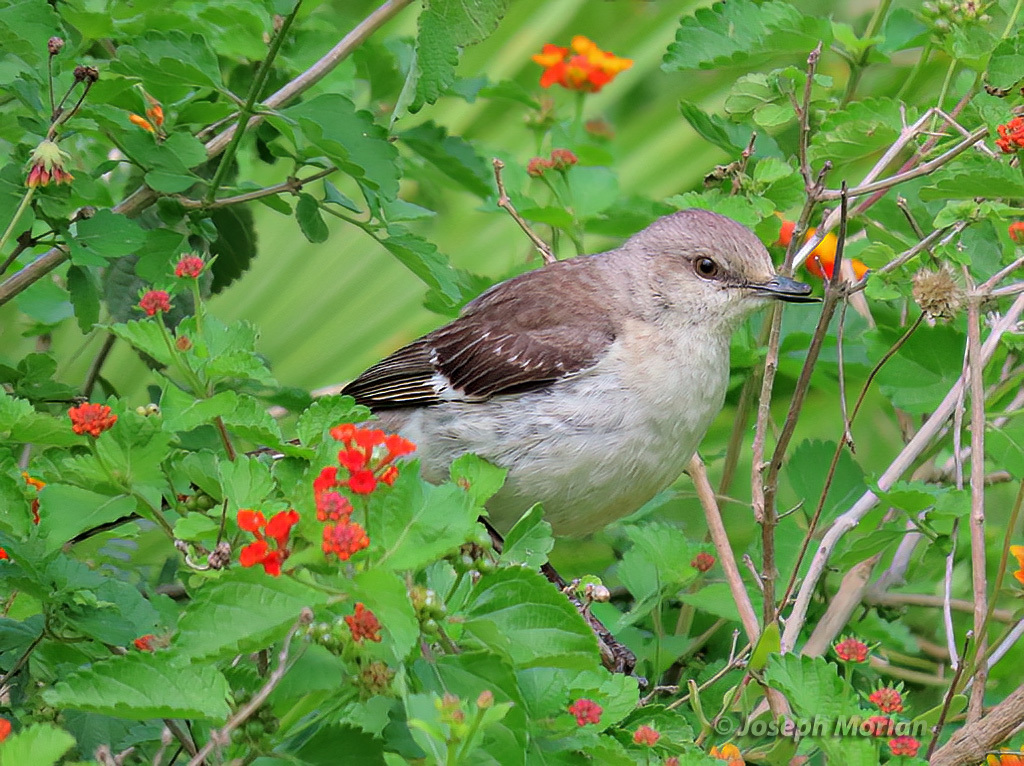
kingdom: Animalia
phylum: Chordata
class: Aves
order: Passeriformes
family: Mimidae
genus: Mimus
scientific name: Mimus polyglottos
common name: Northern mockingbird
